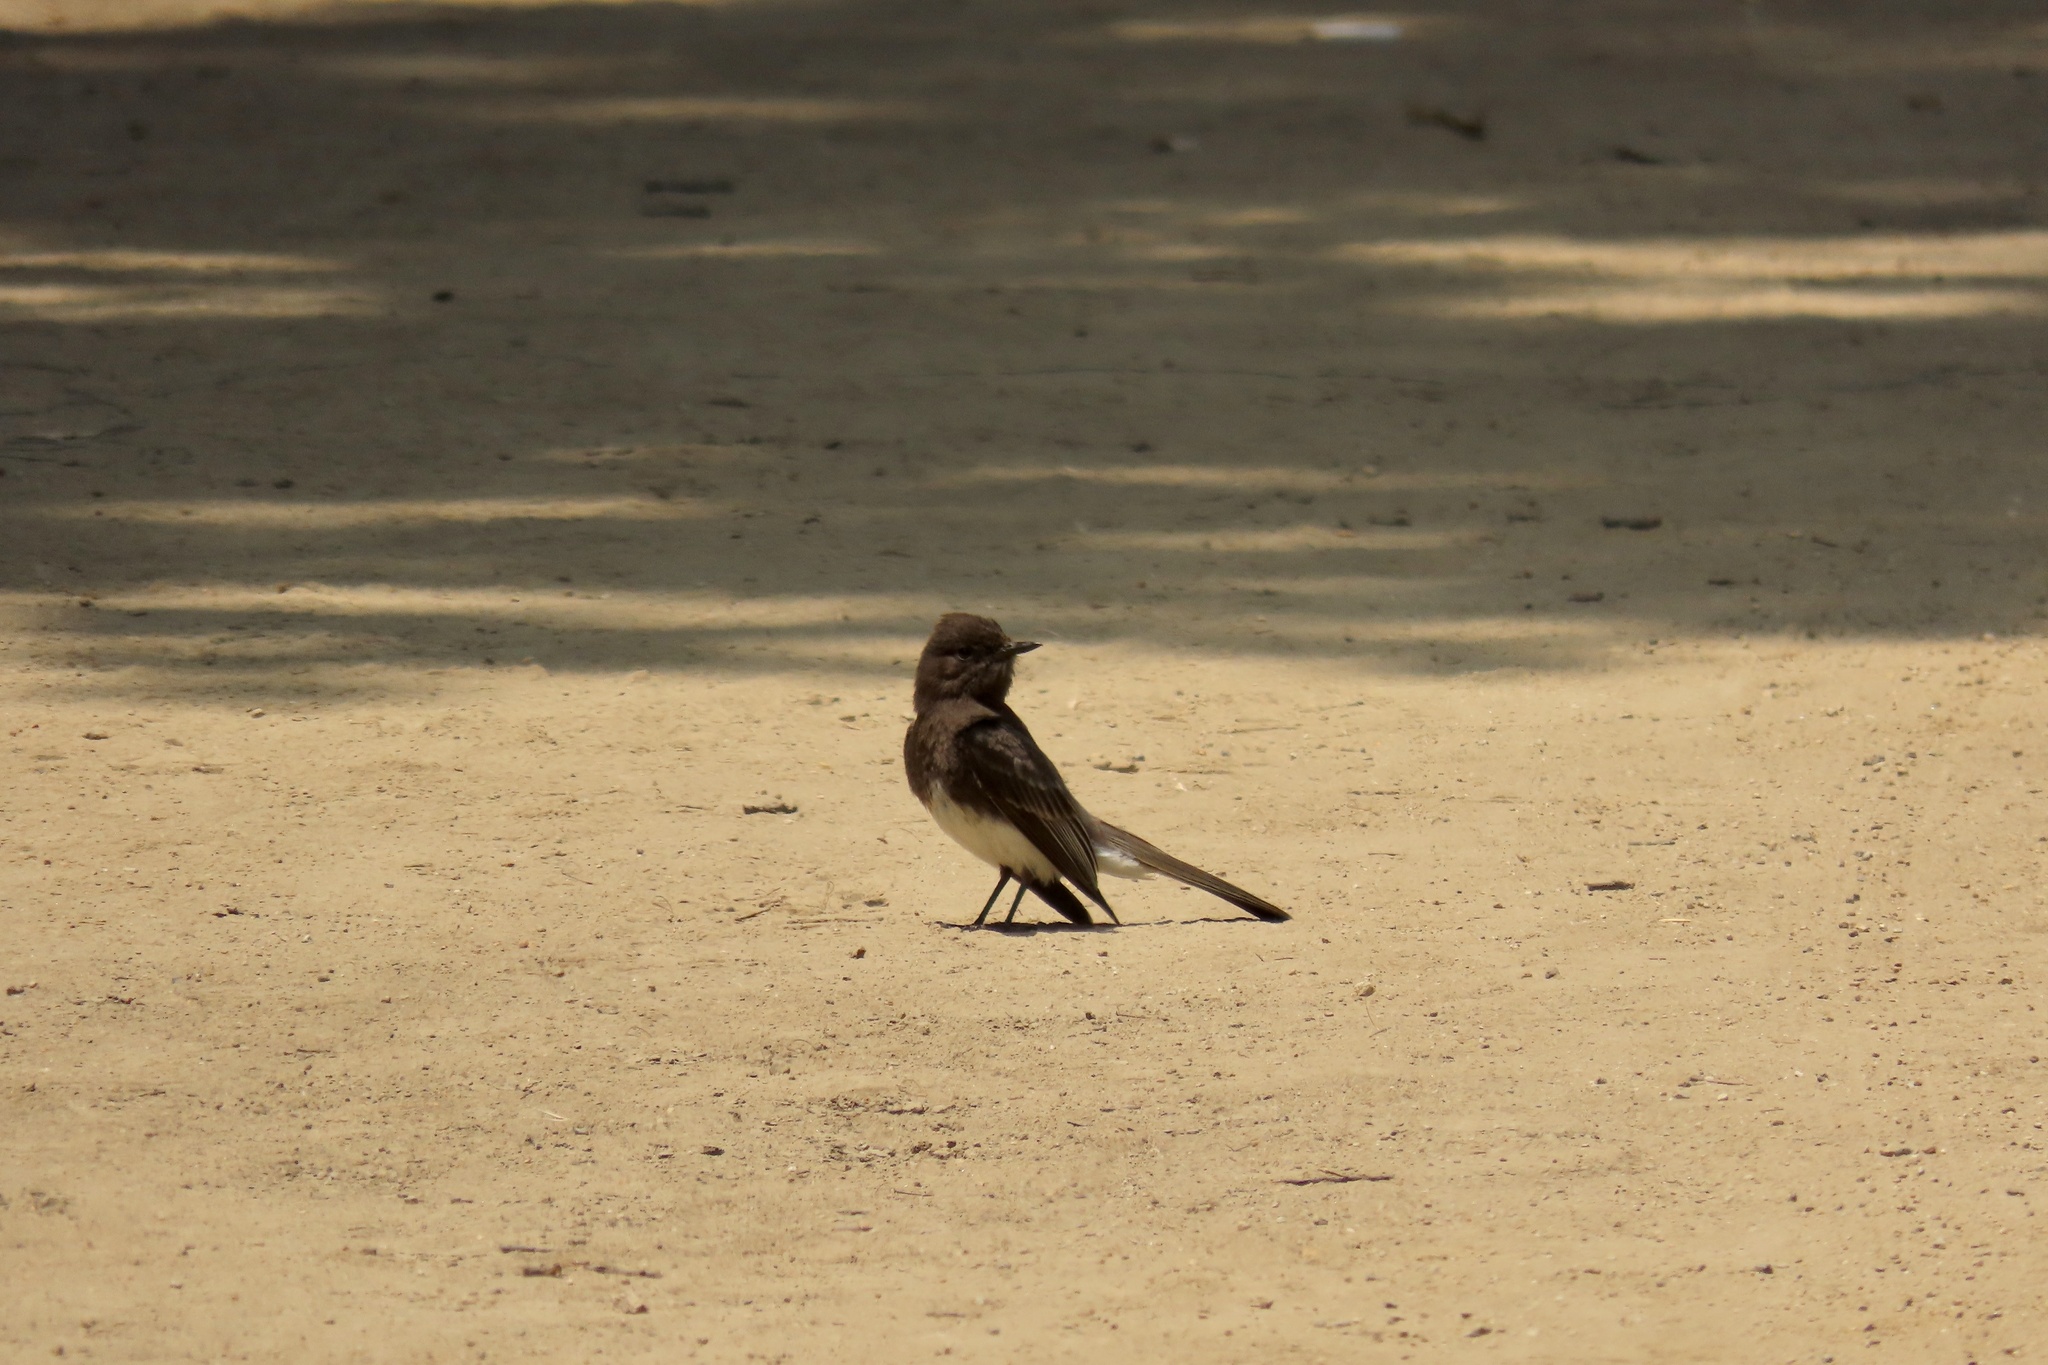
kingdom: Animalia
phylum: Chordata
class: Aves
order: Passeriformes
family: Tyrannidae
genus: Sayornis
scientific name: Sayornis nigricans
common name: Black phoebe
